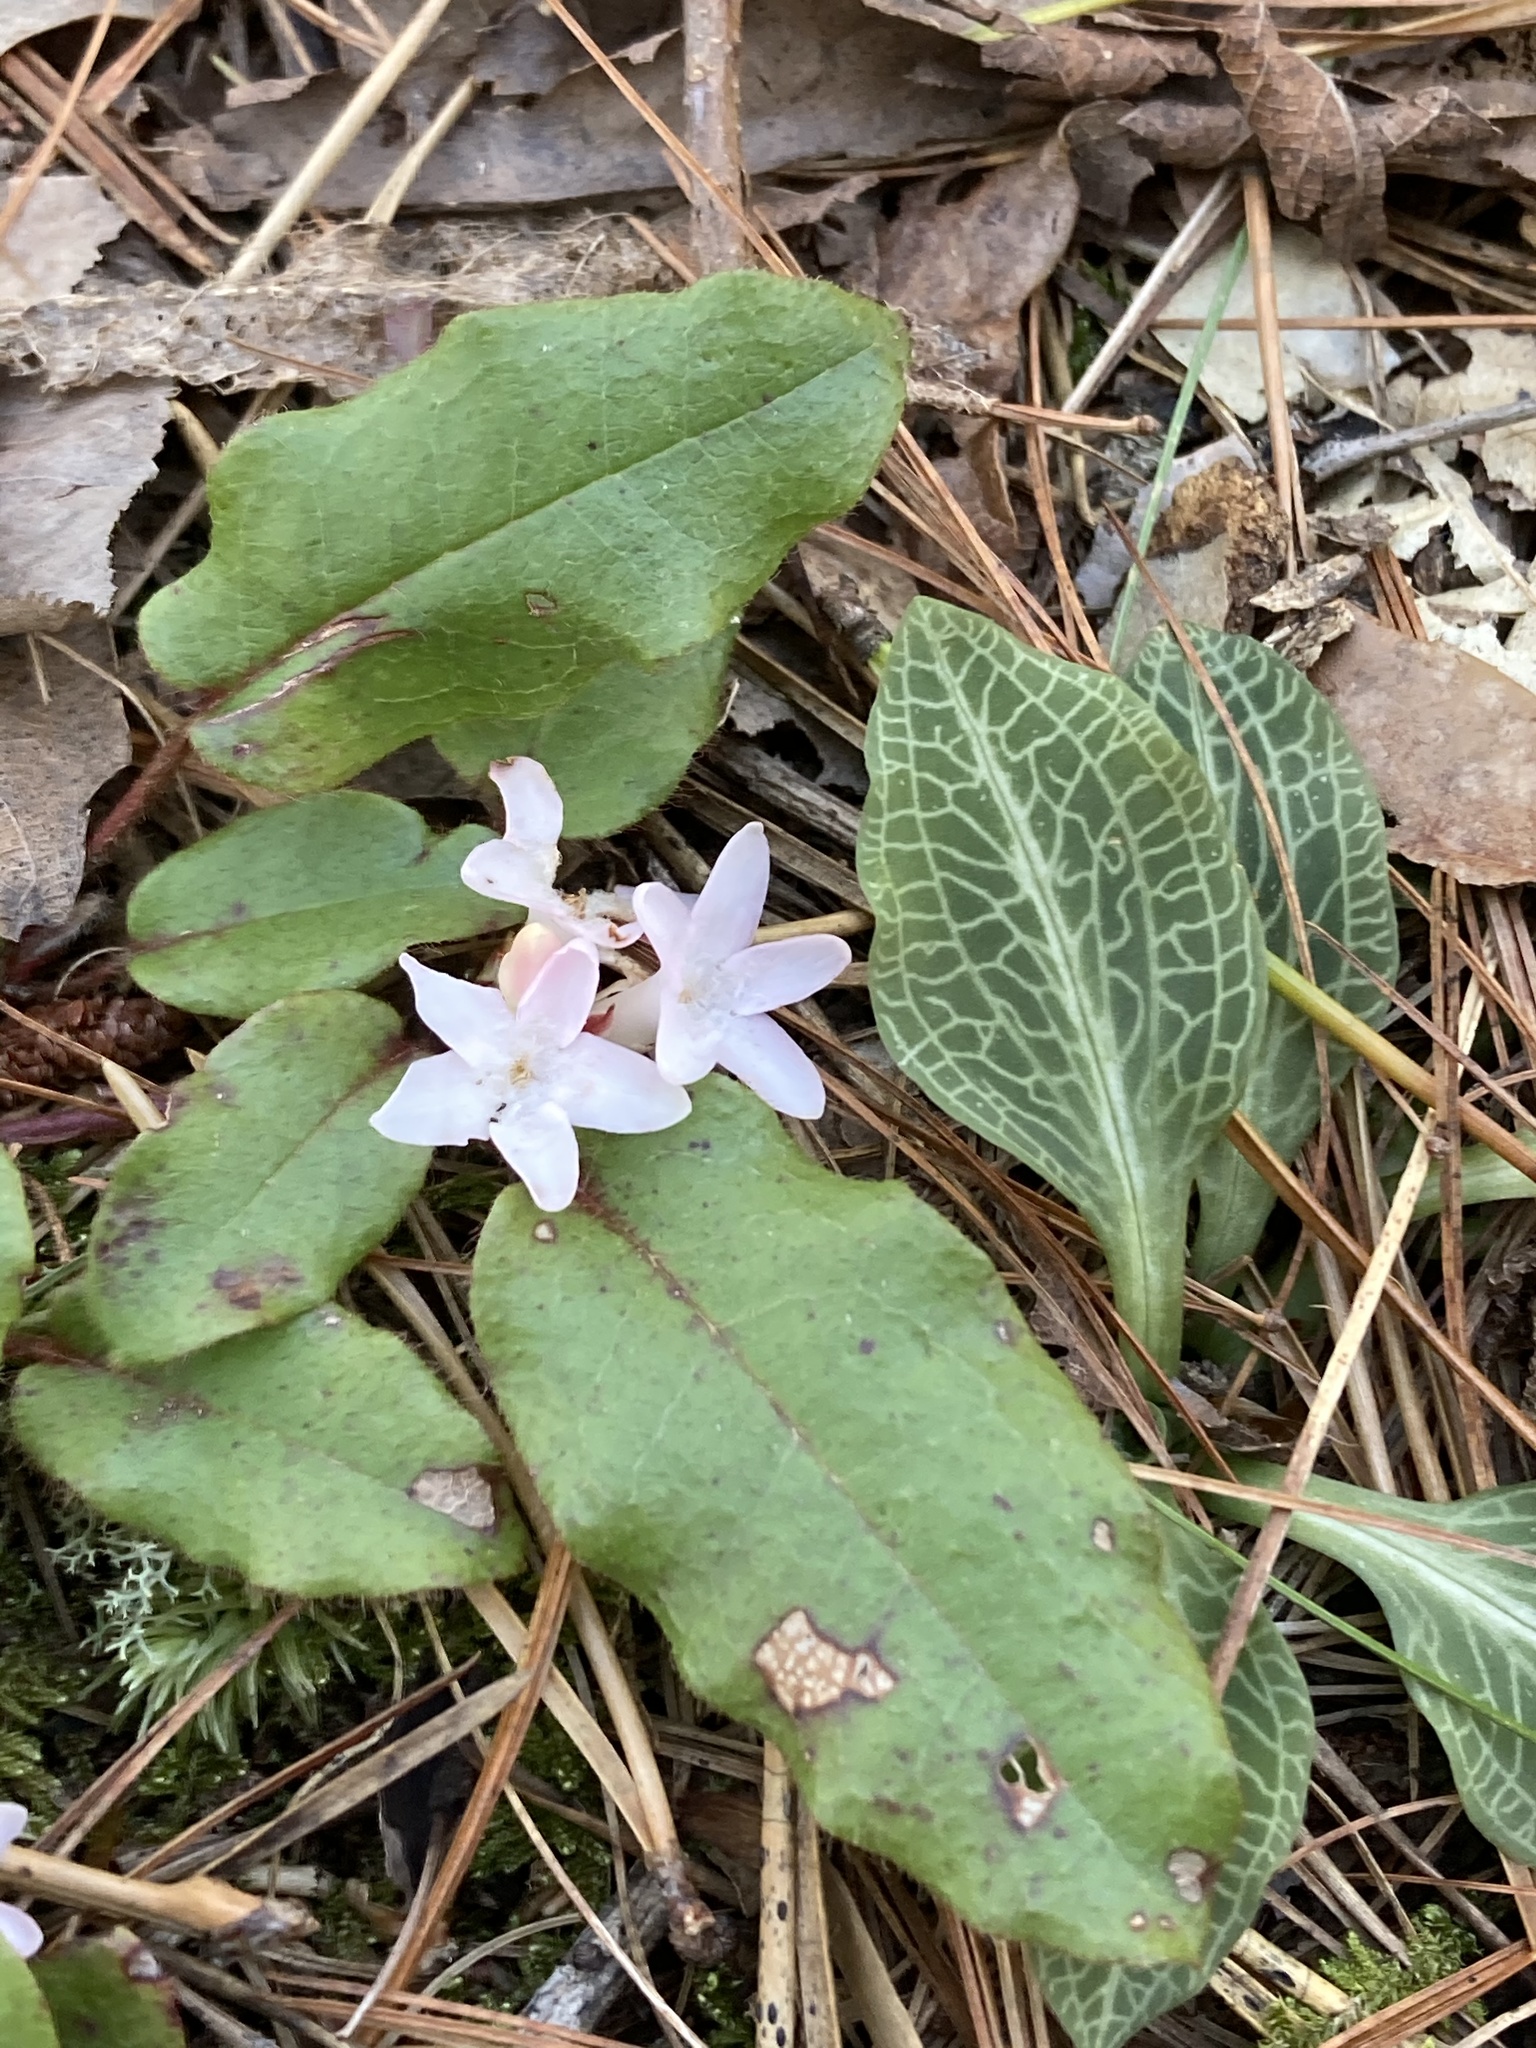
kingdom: Plantae
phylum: Tracheophyta
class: Magnoliopsida
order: Ericales
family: Ericaceae
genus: Epigaea
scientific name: Epigaea repens
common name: Gravelroot
